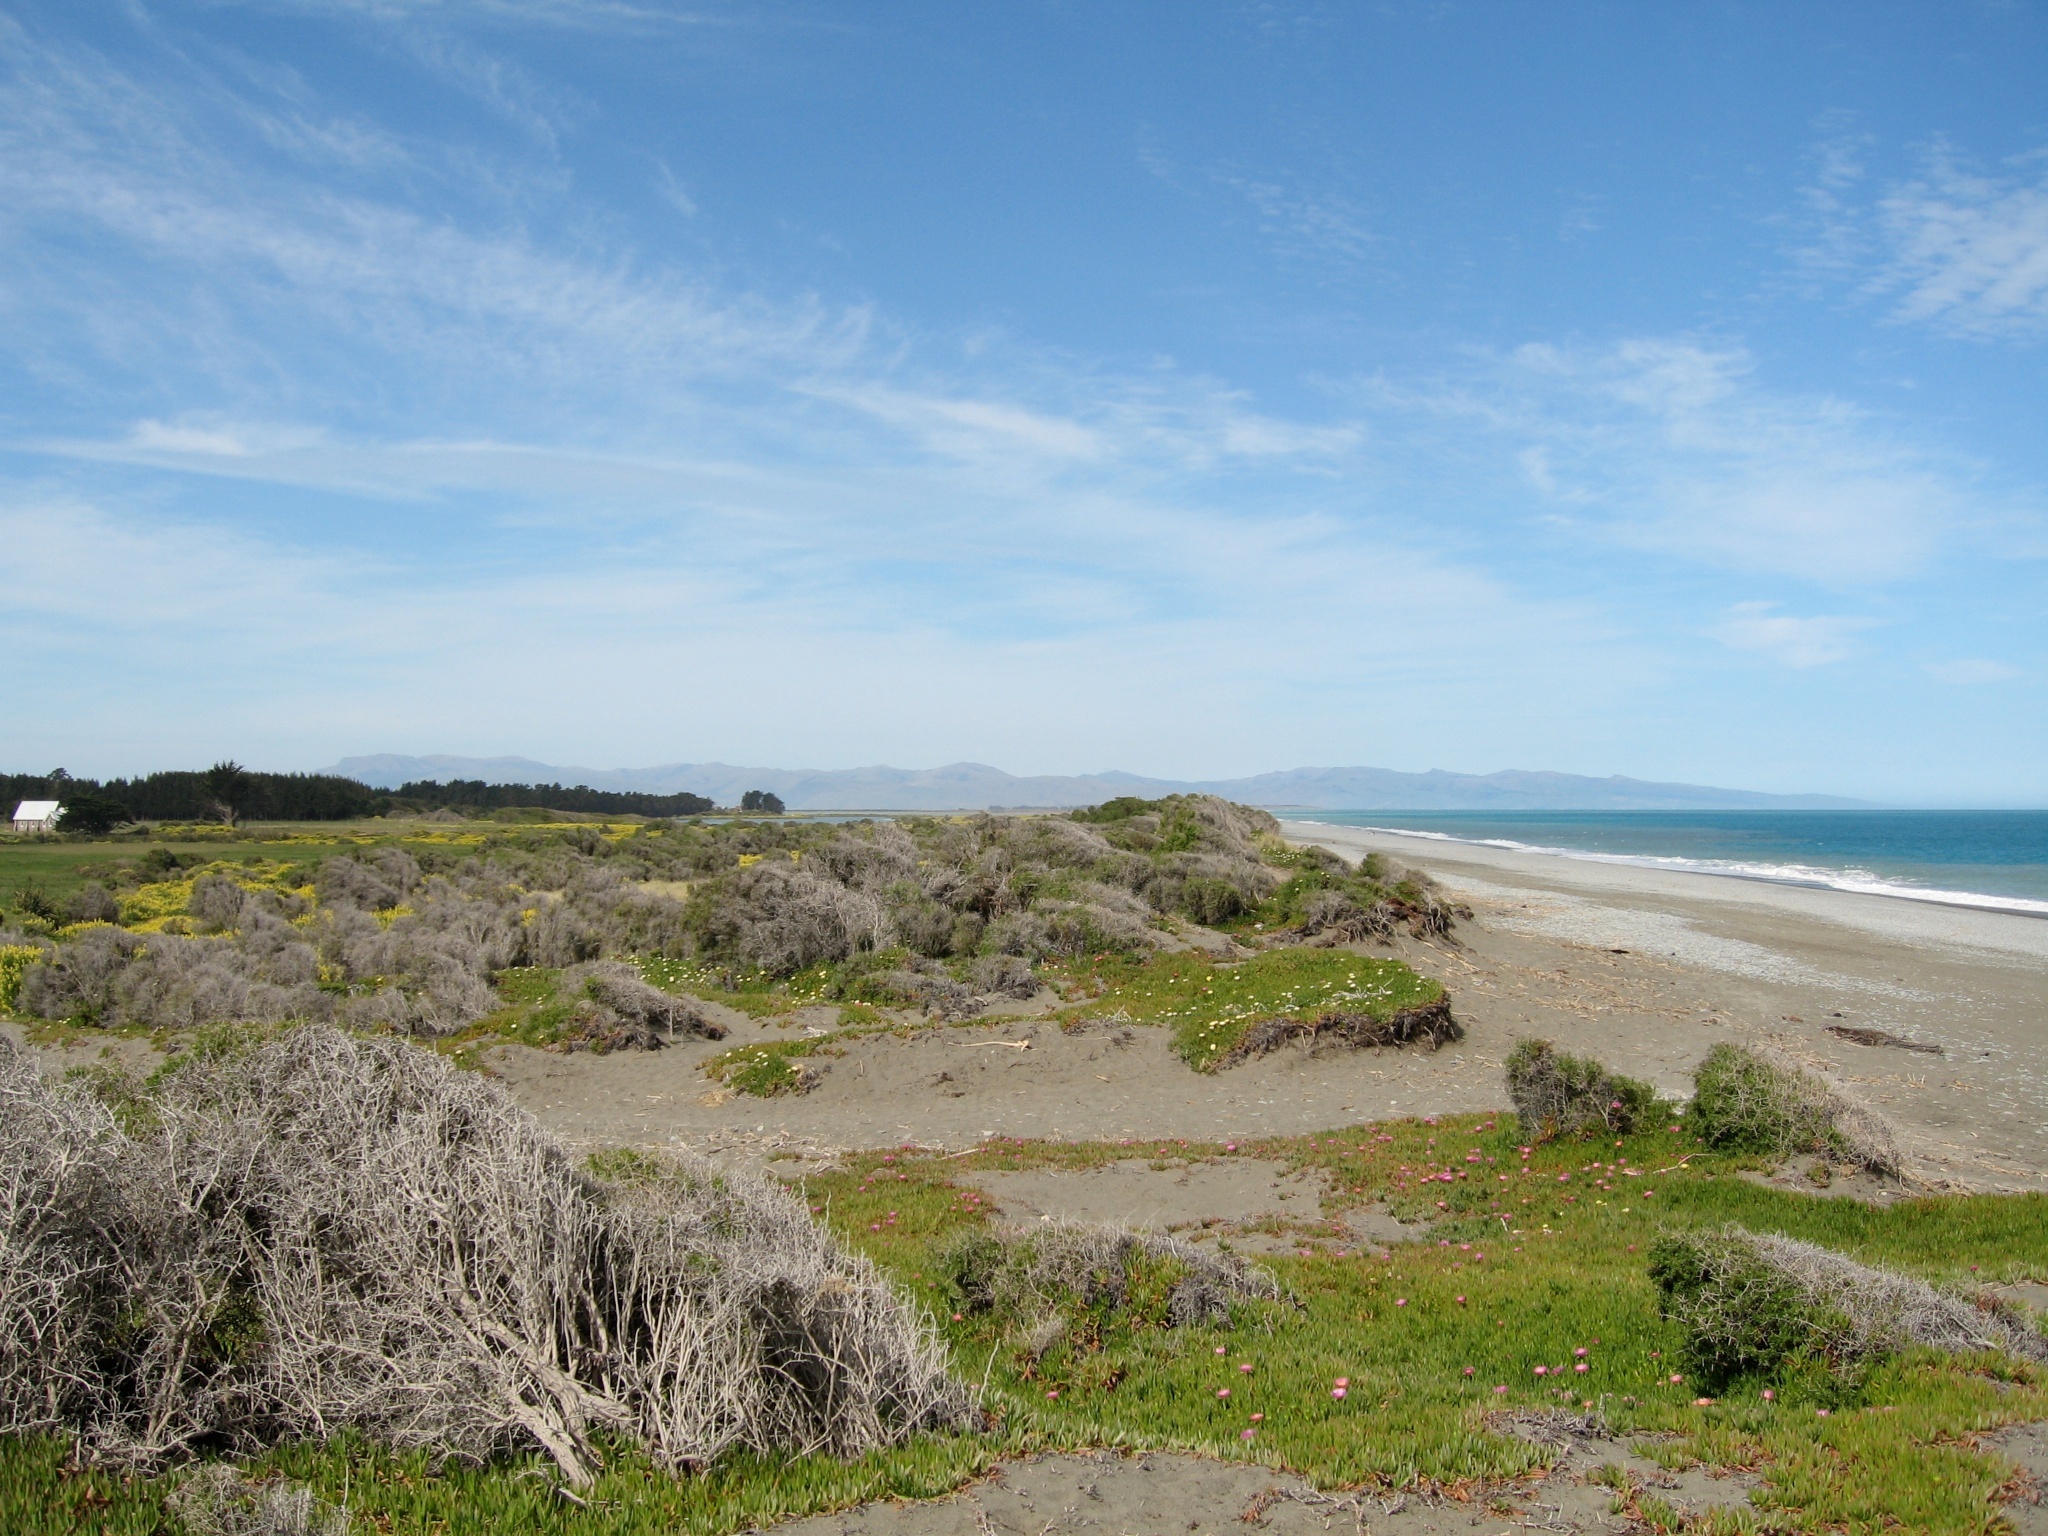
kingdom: Plantae
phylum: Tracheophyta
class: Magnoliopsida
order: Solanales
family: Solanaceae
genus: Lycium
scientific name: Lycium ferocissimum
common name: African boxthorn
